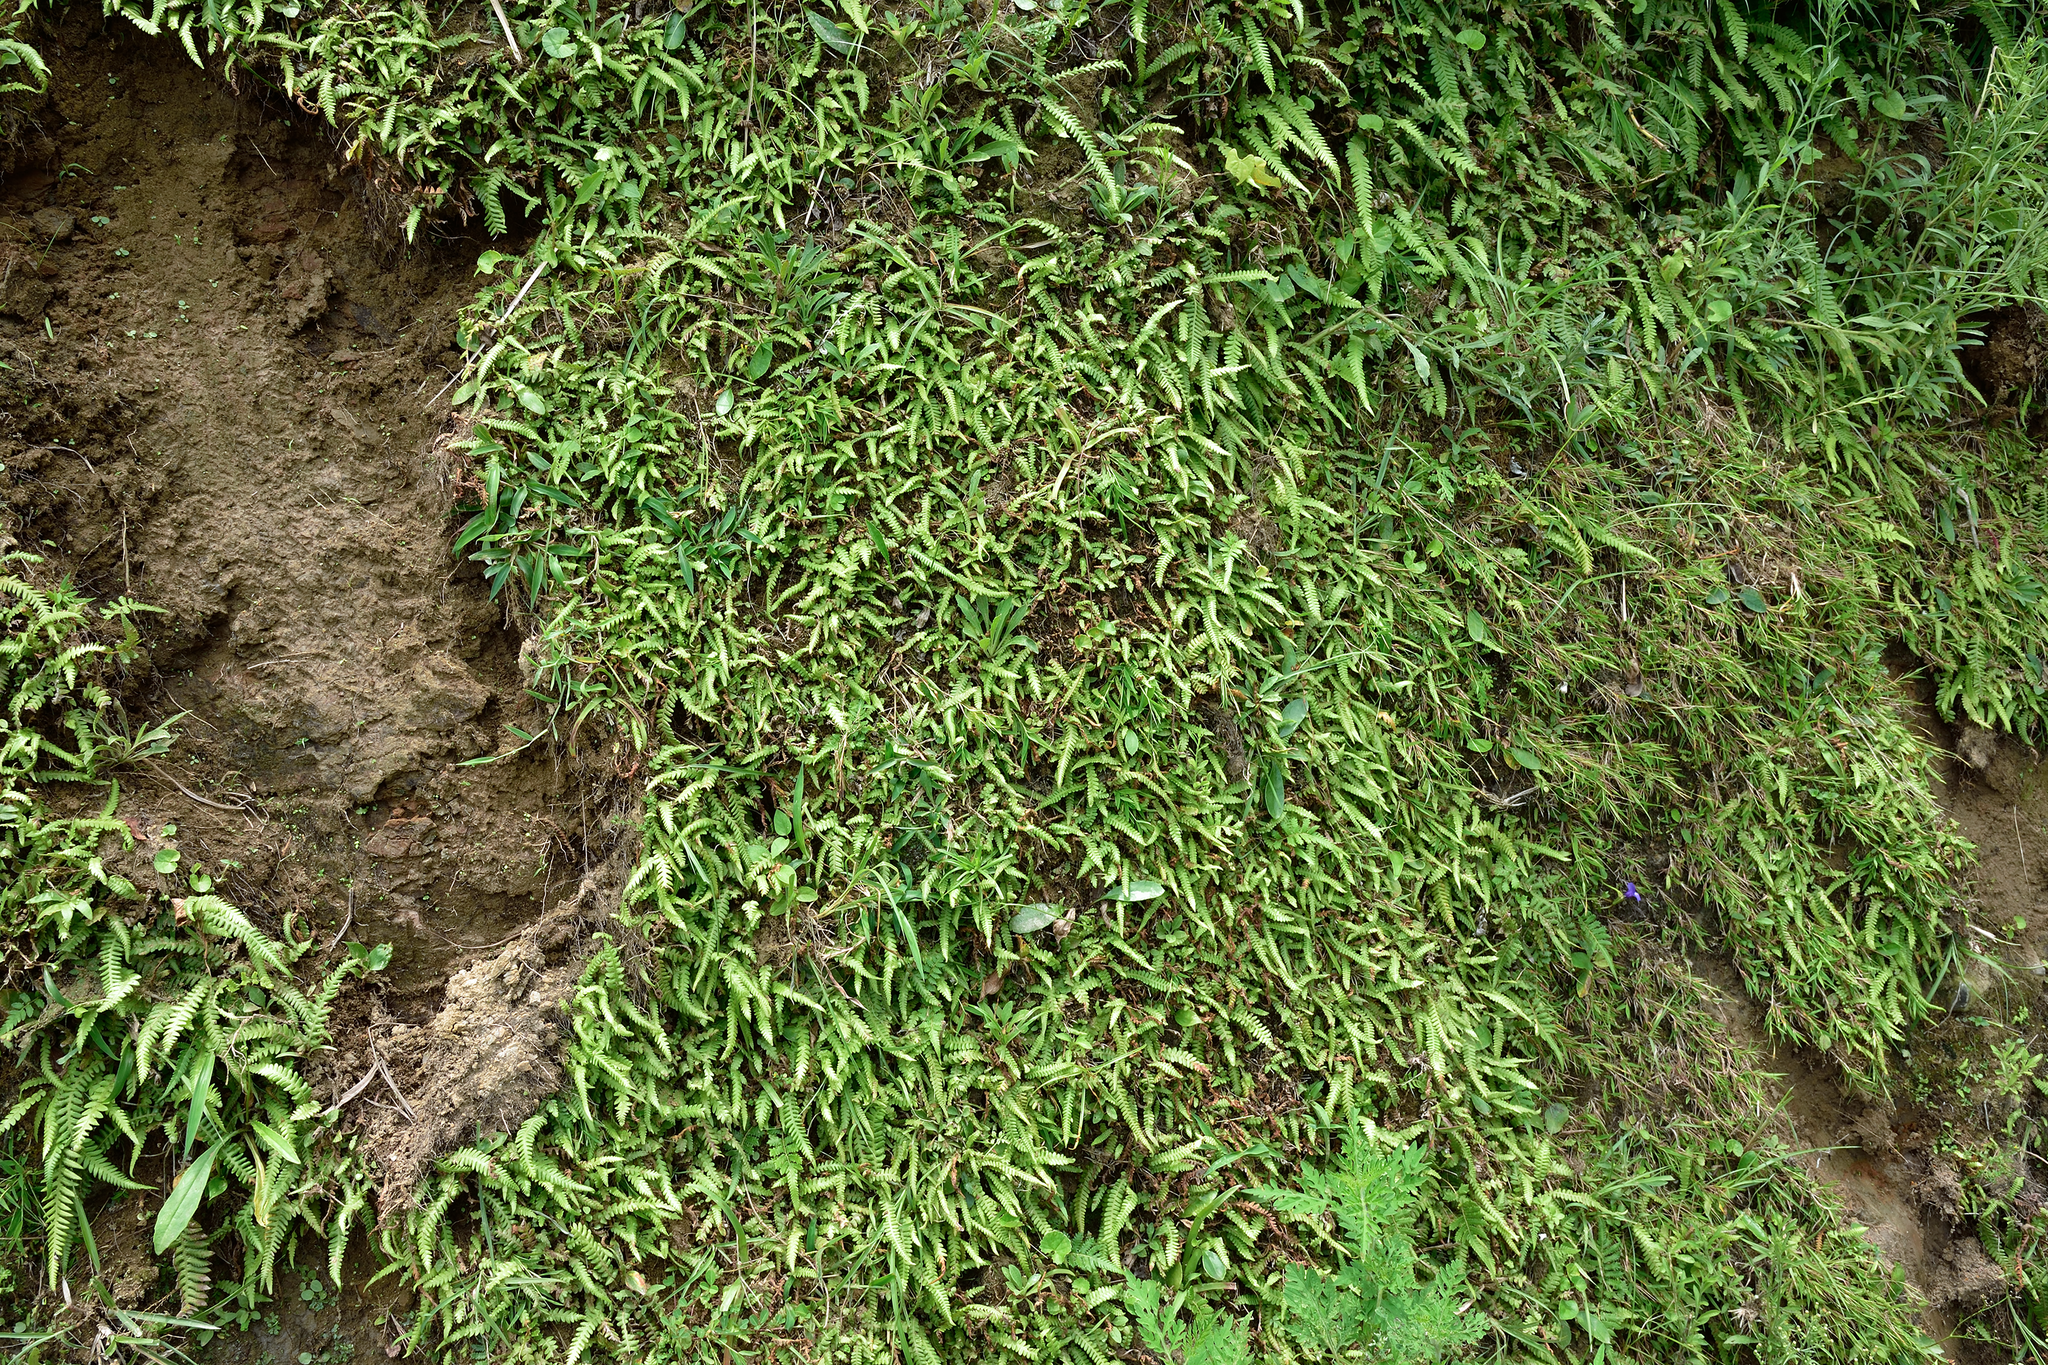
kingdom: Plantae
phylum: Tracheophyta
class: Polypodiopsida
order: Polypodiales
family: Thelypteridaceae
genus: Phegopteris
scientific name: Phegopteris decursive-pinnata
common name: Japanese beech fern
